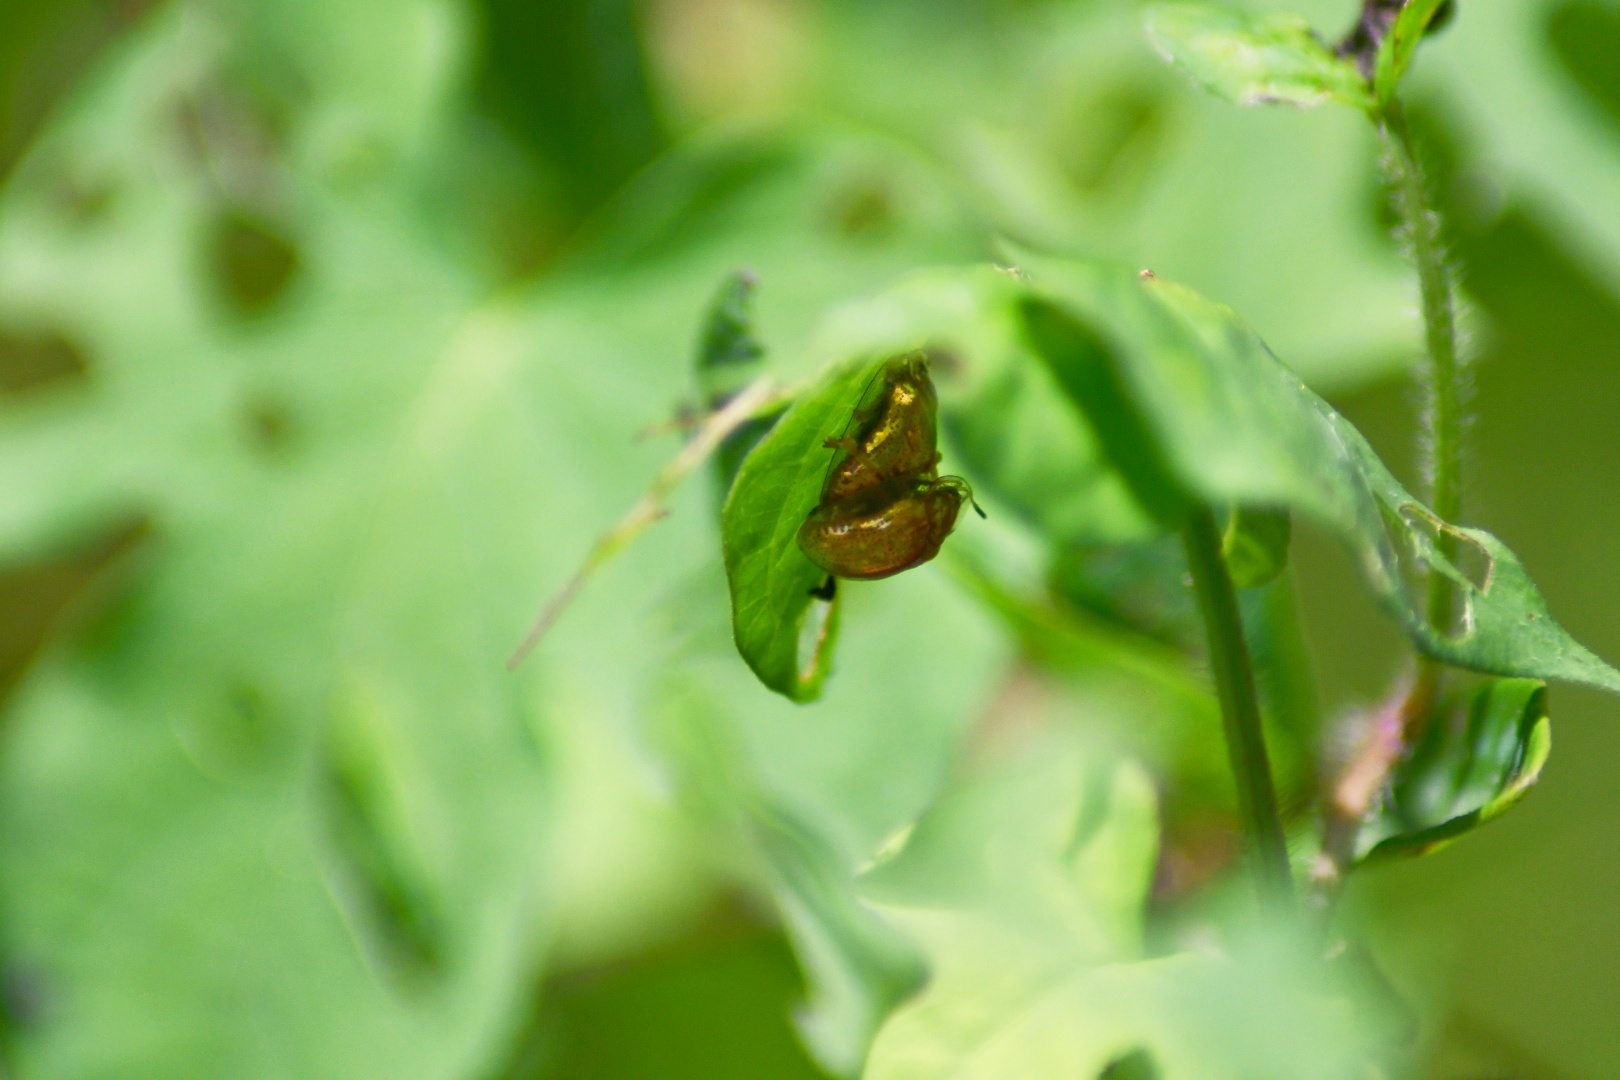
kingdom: Animalia
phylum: Arthropoda
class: Insecta
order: Coleoptera
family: Chrysomelidae
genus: Charidotella
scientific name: Charidotella sexpunctata
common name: Golden tortoise beetle
